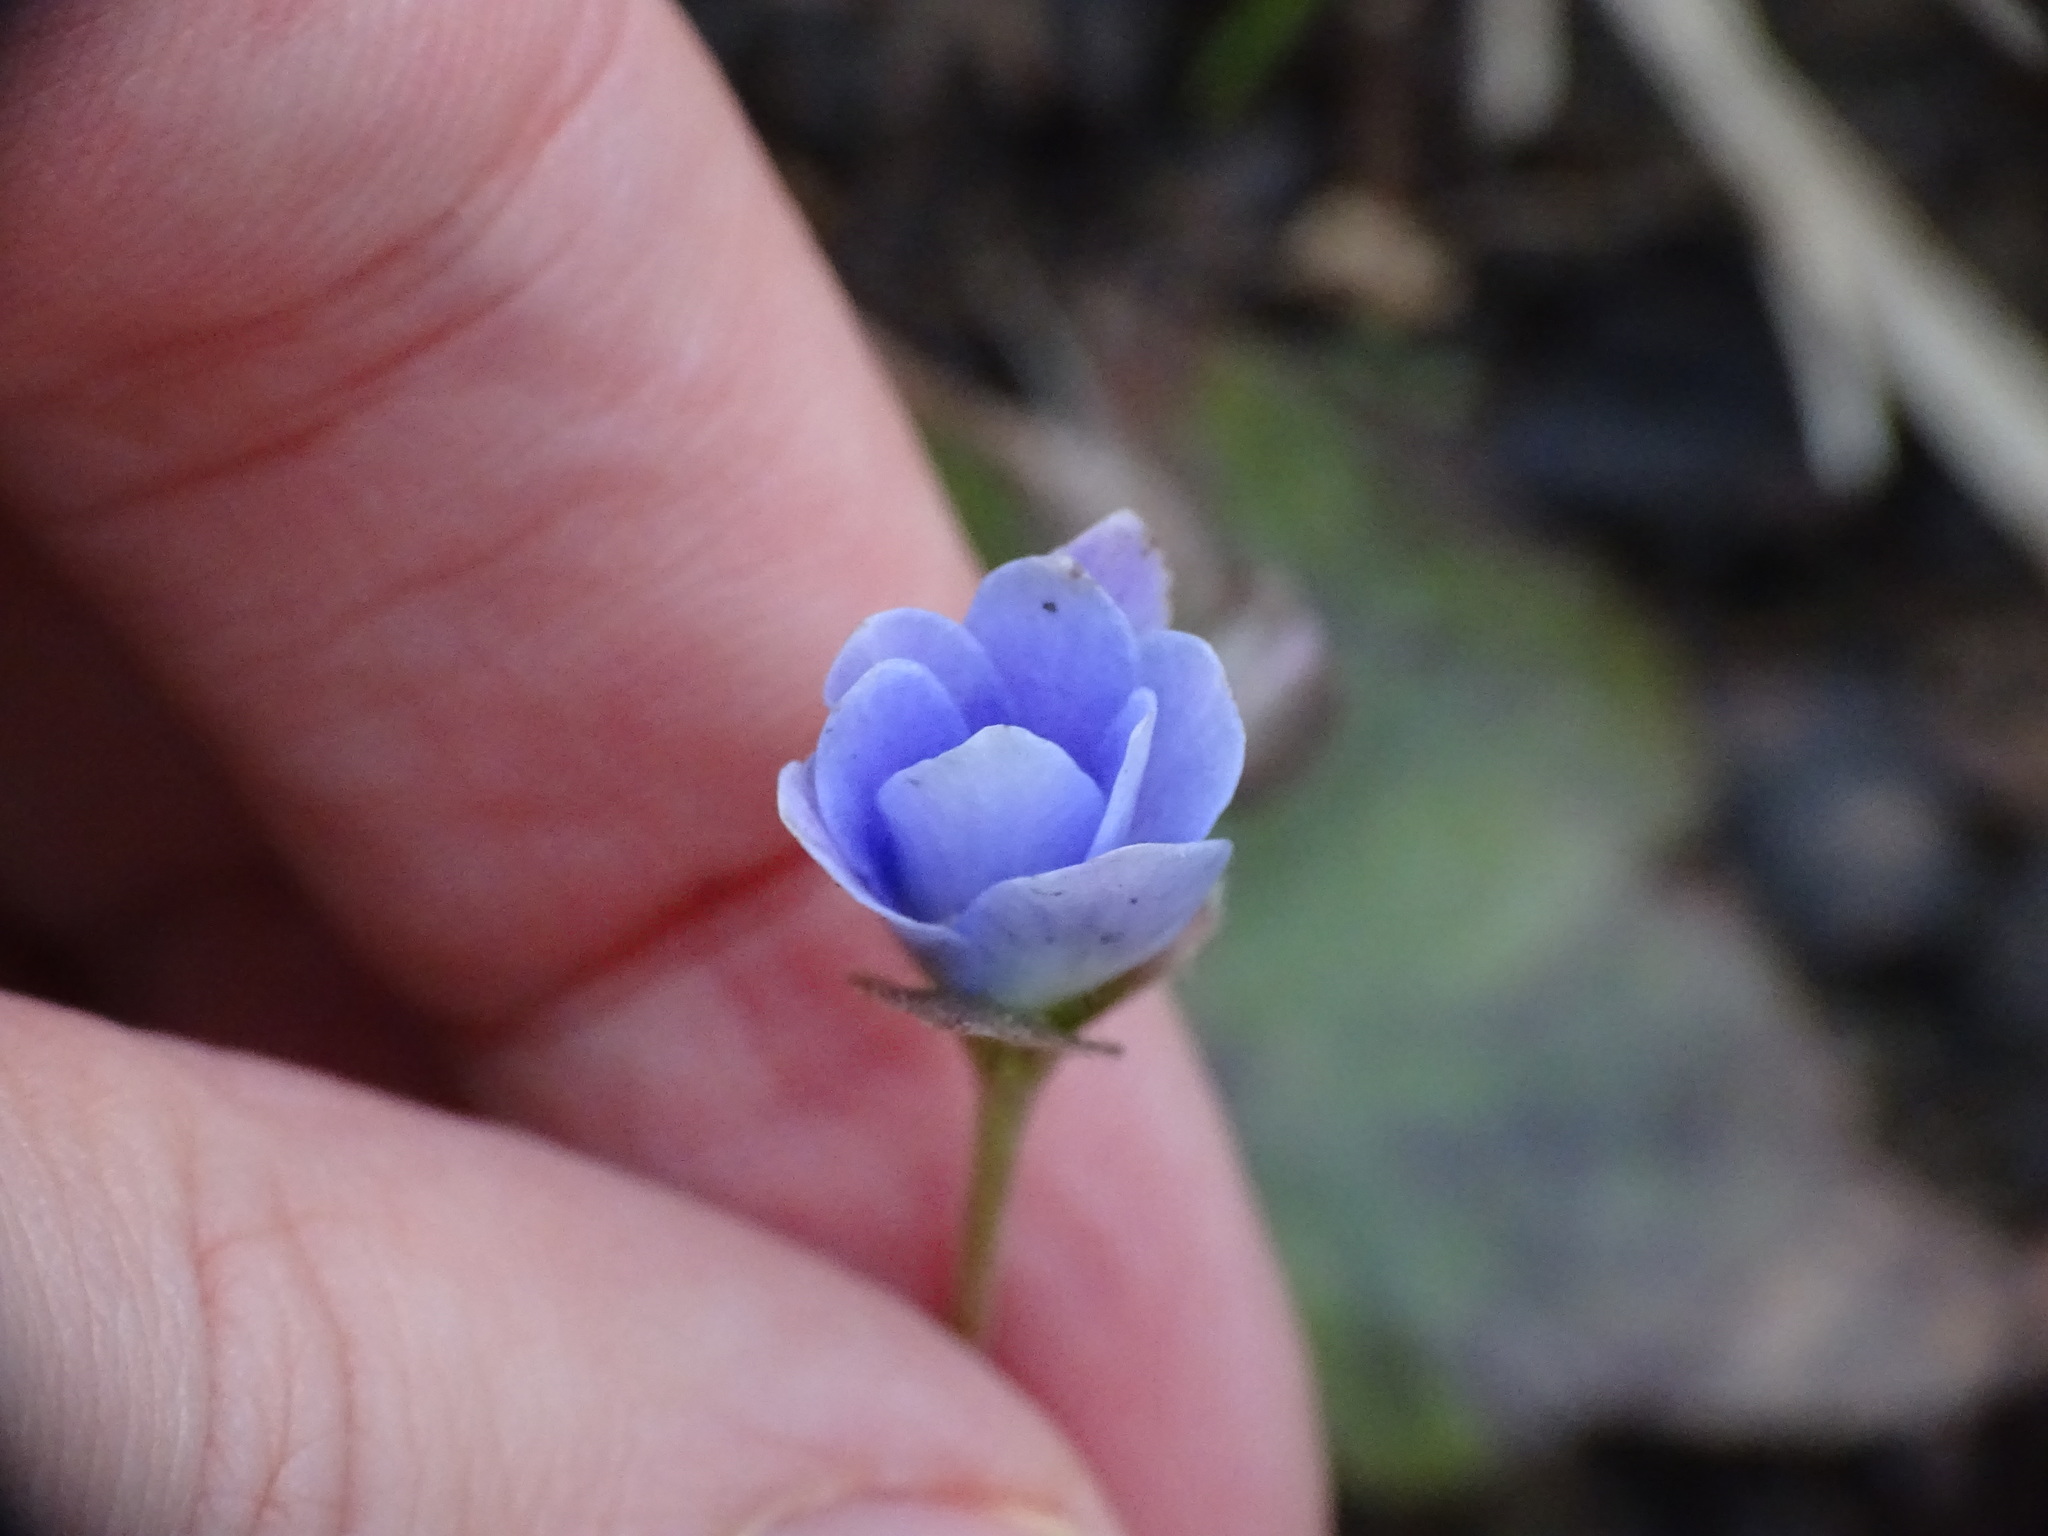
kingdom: Plantae
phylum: Tracheophyta
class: Magnoliopsida
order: Ranunculales
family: Ranunculaceae
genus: Hepatica
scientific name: Hepatica americana
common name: American hepatica
